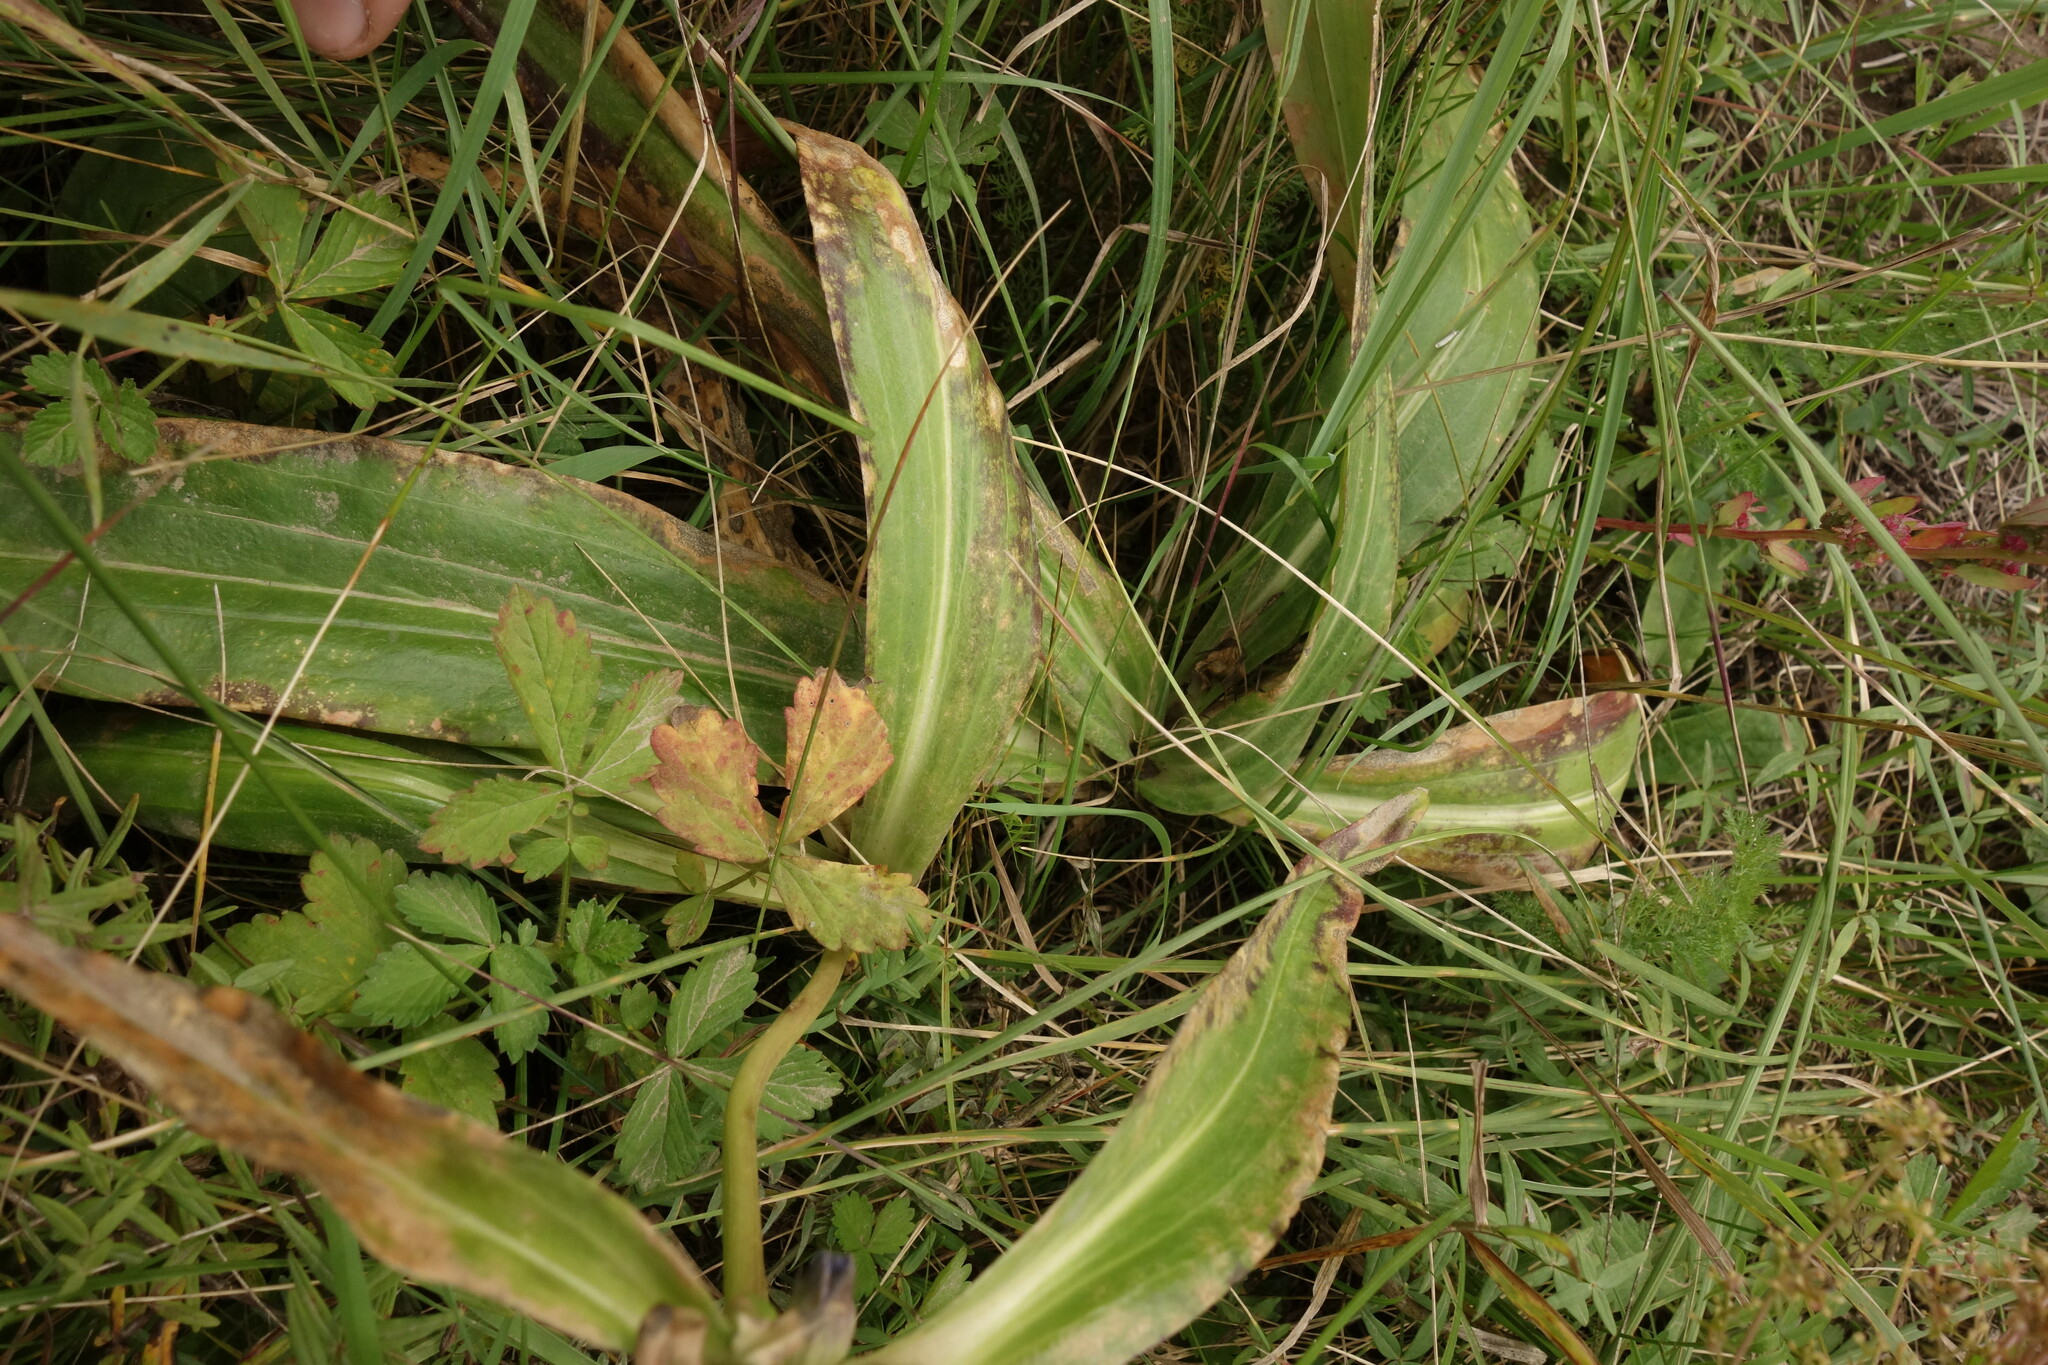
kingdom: Plantae
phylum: Tracheophyta
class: Magnoliopsida
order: Gentianales
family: Gentianaceae
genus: Gentiana
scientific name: Gentiana macrophylla
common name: Large-leaf gentian
